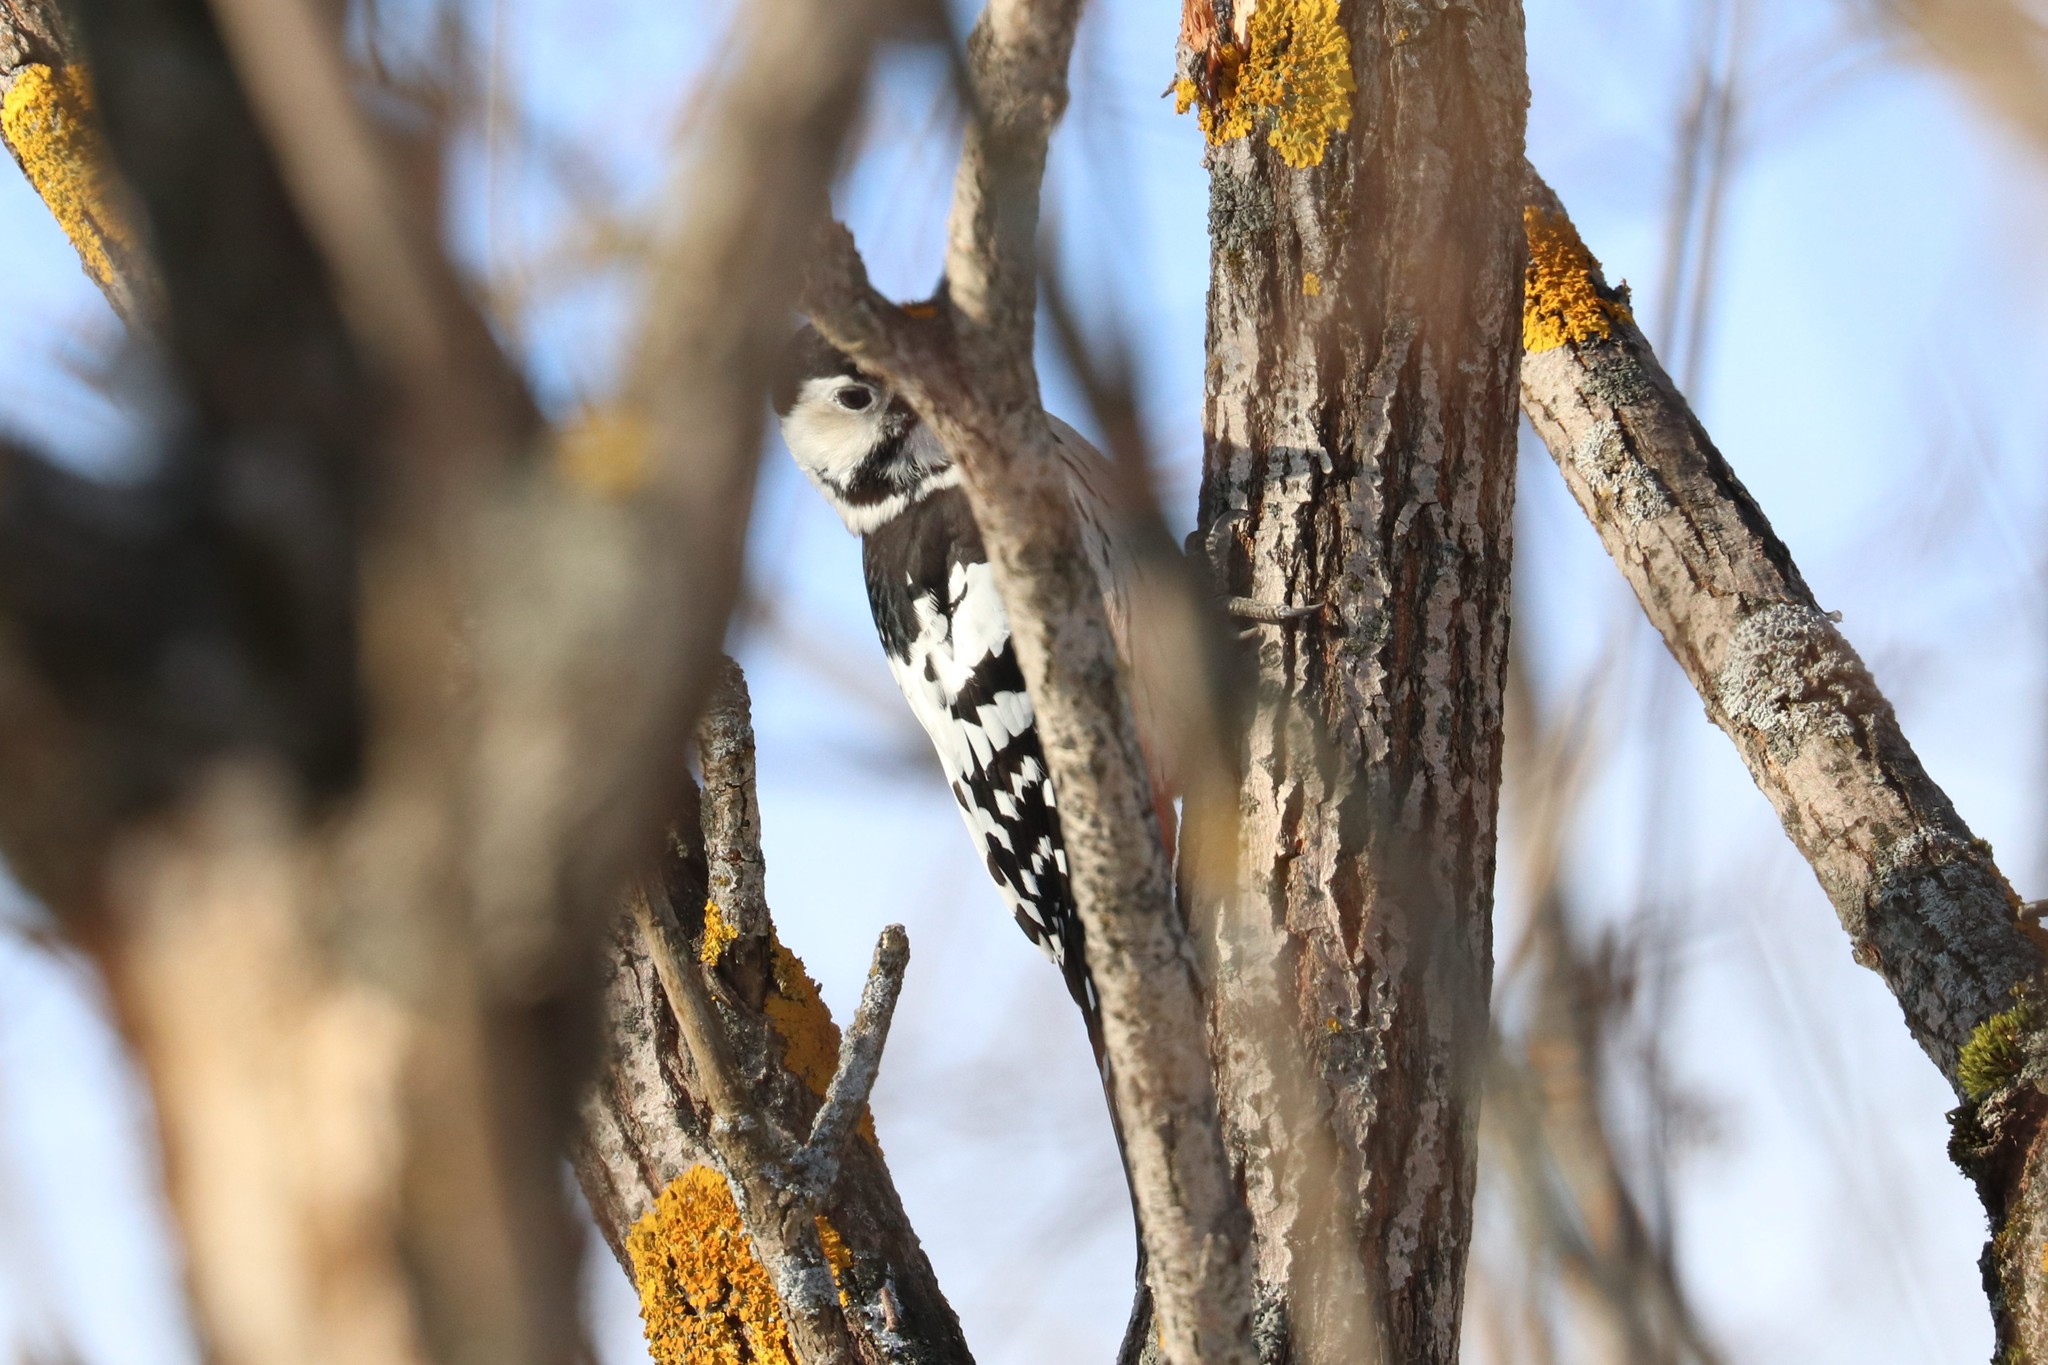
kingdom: Animalia
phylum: Chordata
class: Aves
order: Piciformes
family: Picidae
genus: Dendrocopos
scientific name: Dendrocopos leucotos
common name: White-backed woodpecker
